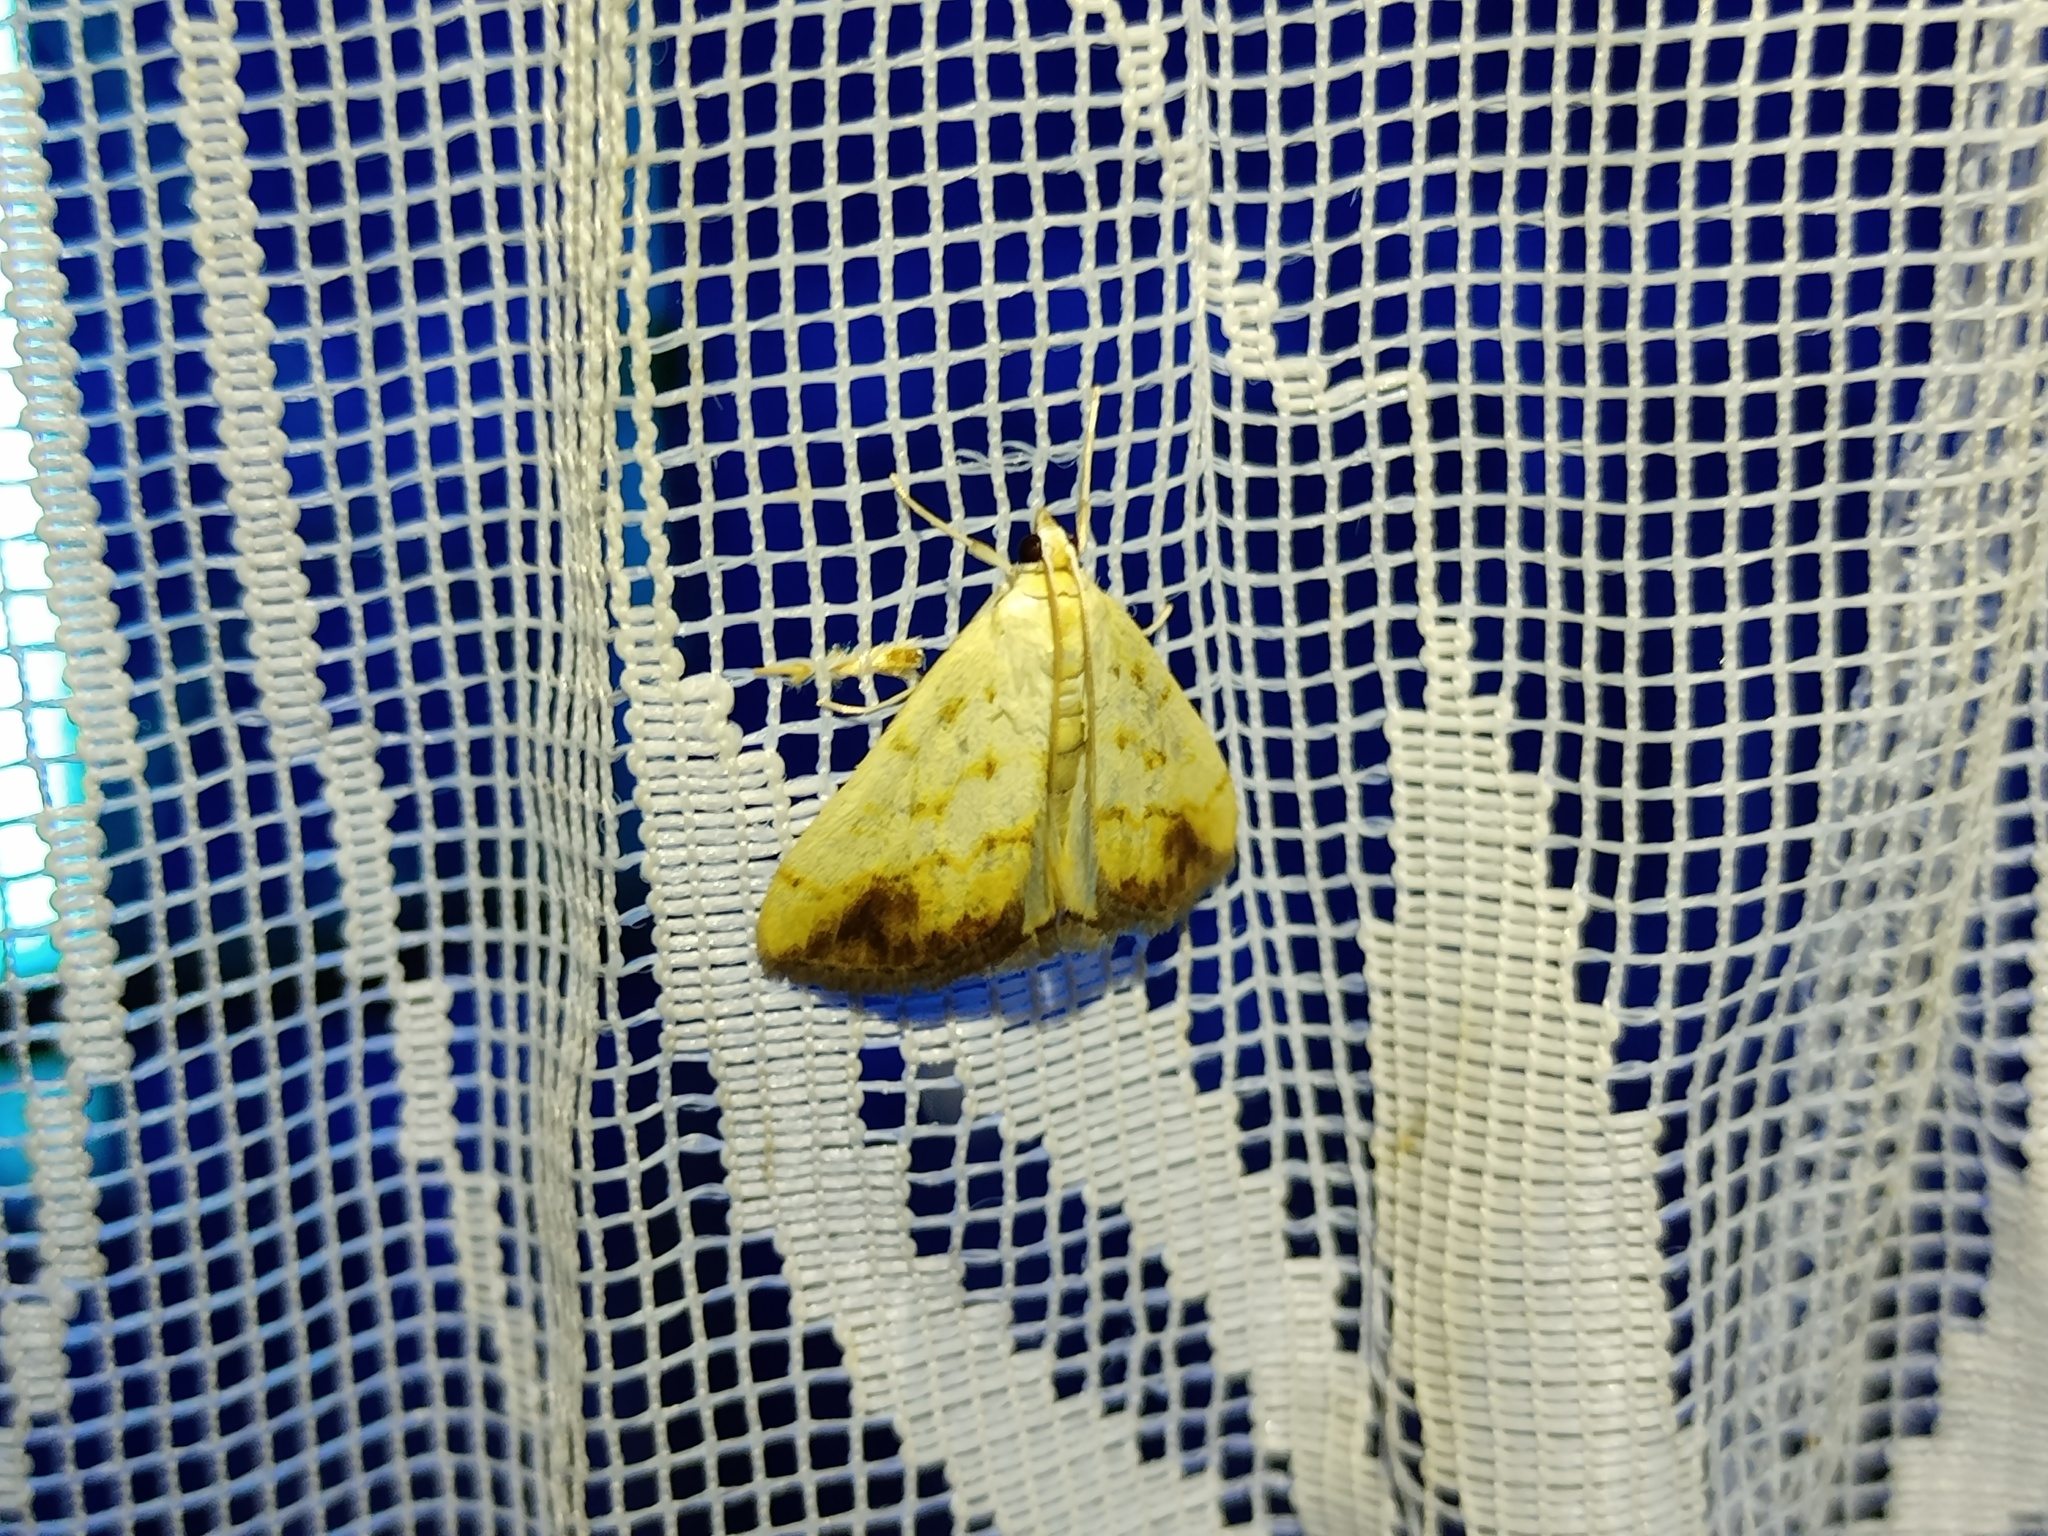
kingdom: Animalia
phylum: Arthropoda
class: Insecta
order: Lepidoptera
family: Crambidae
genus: Evergestis
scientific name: Evergestis extimalis
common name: Marbled yellow pearl
